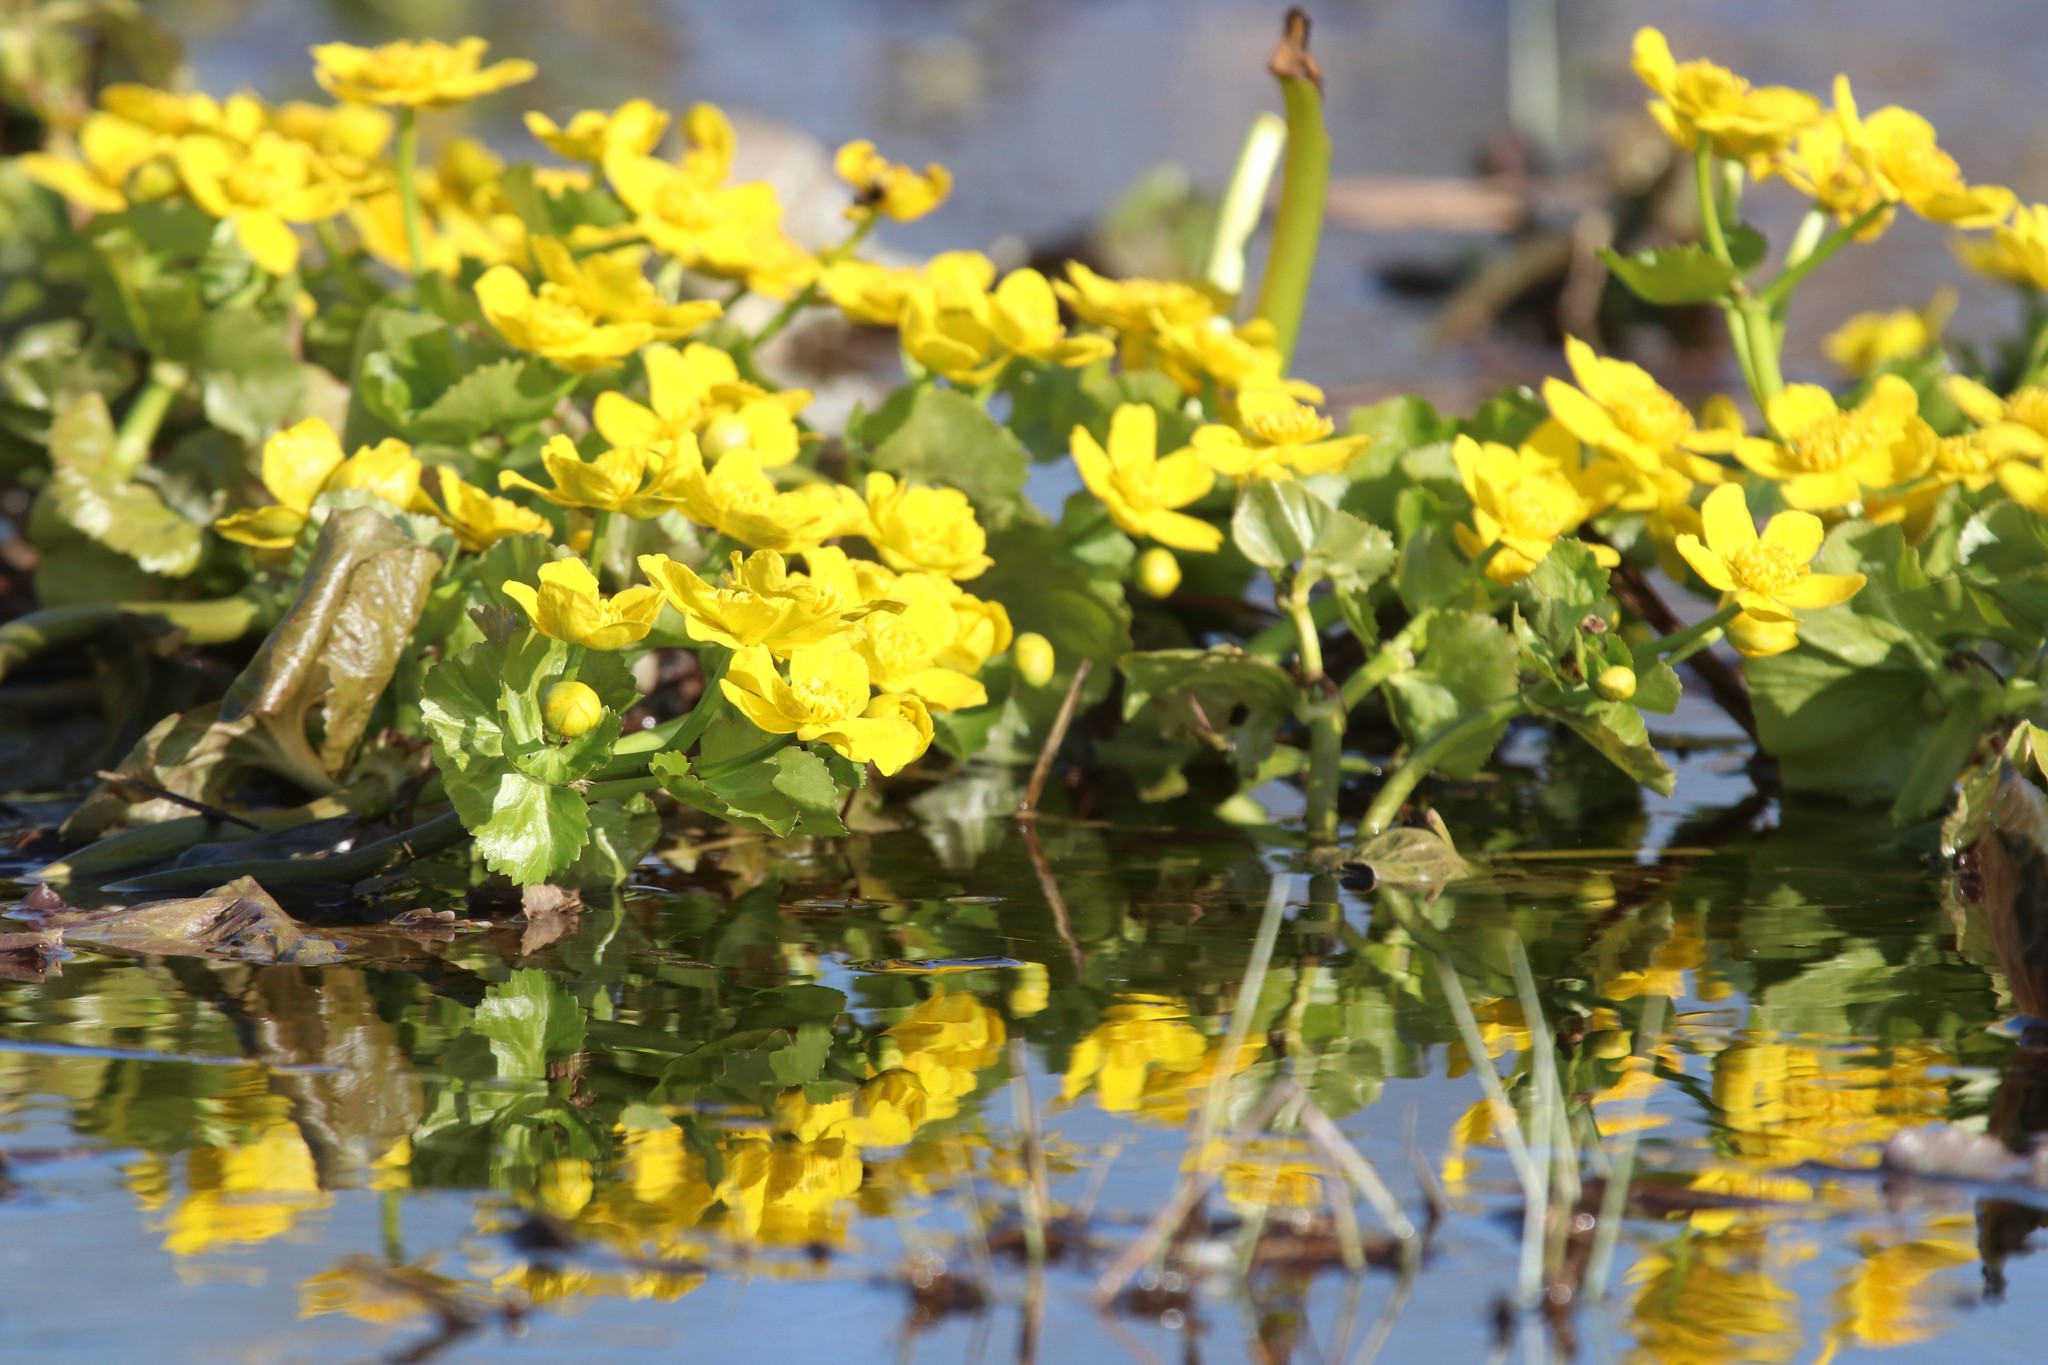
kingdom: Plantae
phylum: Tracheophyta
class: Magnoliopsida
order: Ranunculales
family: Ranunculaceae
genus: Caltha
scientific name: Caltha palustris
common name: Marsh marigold
